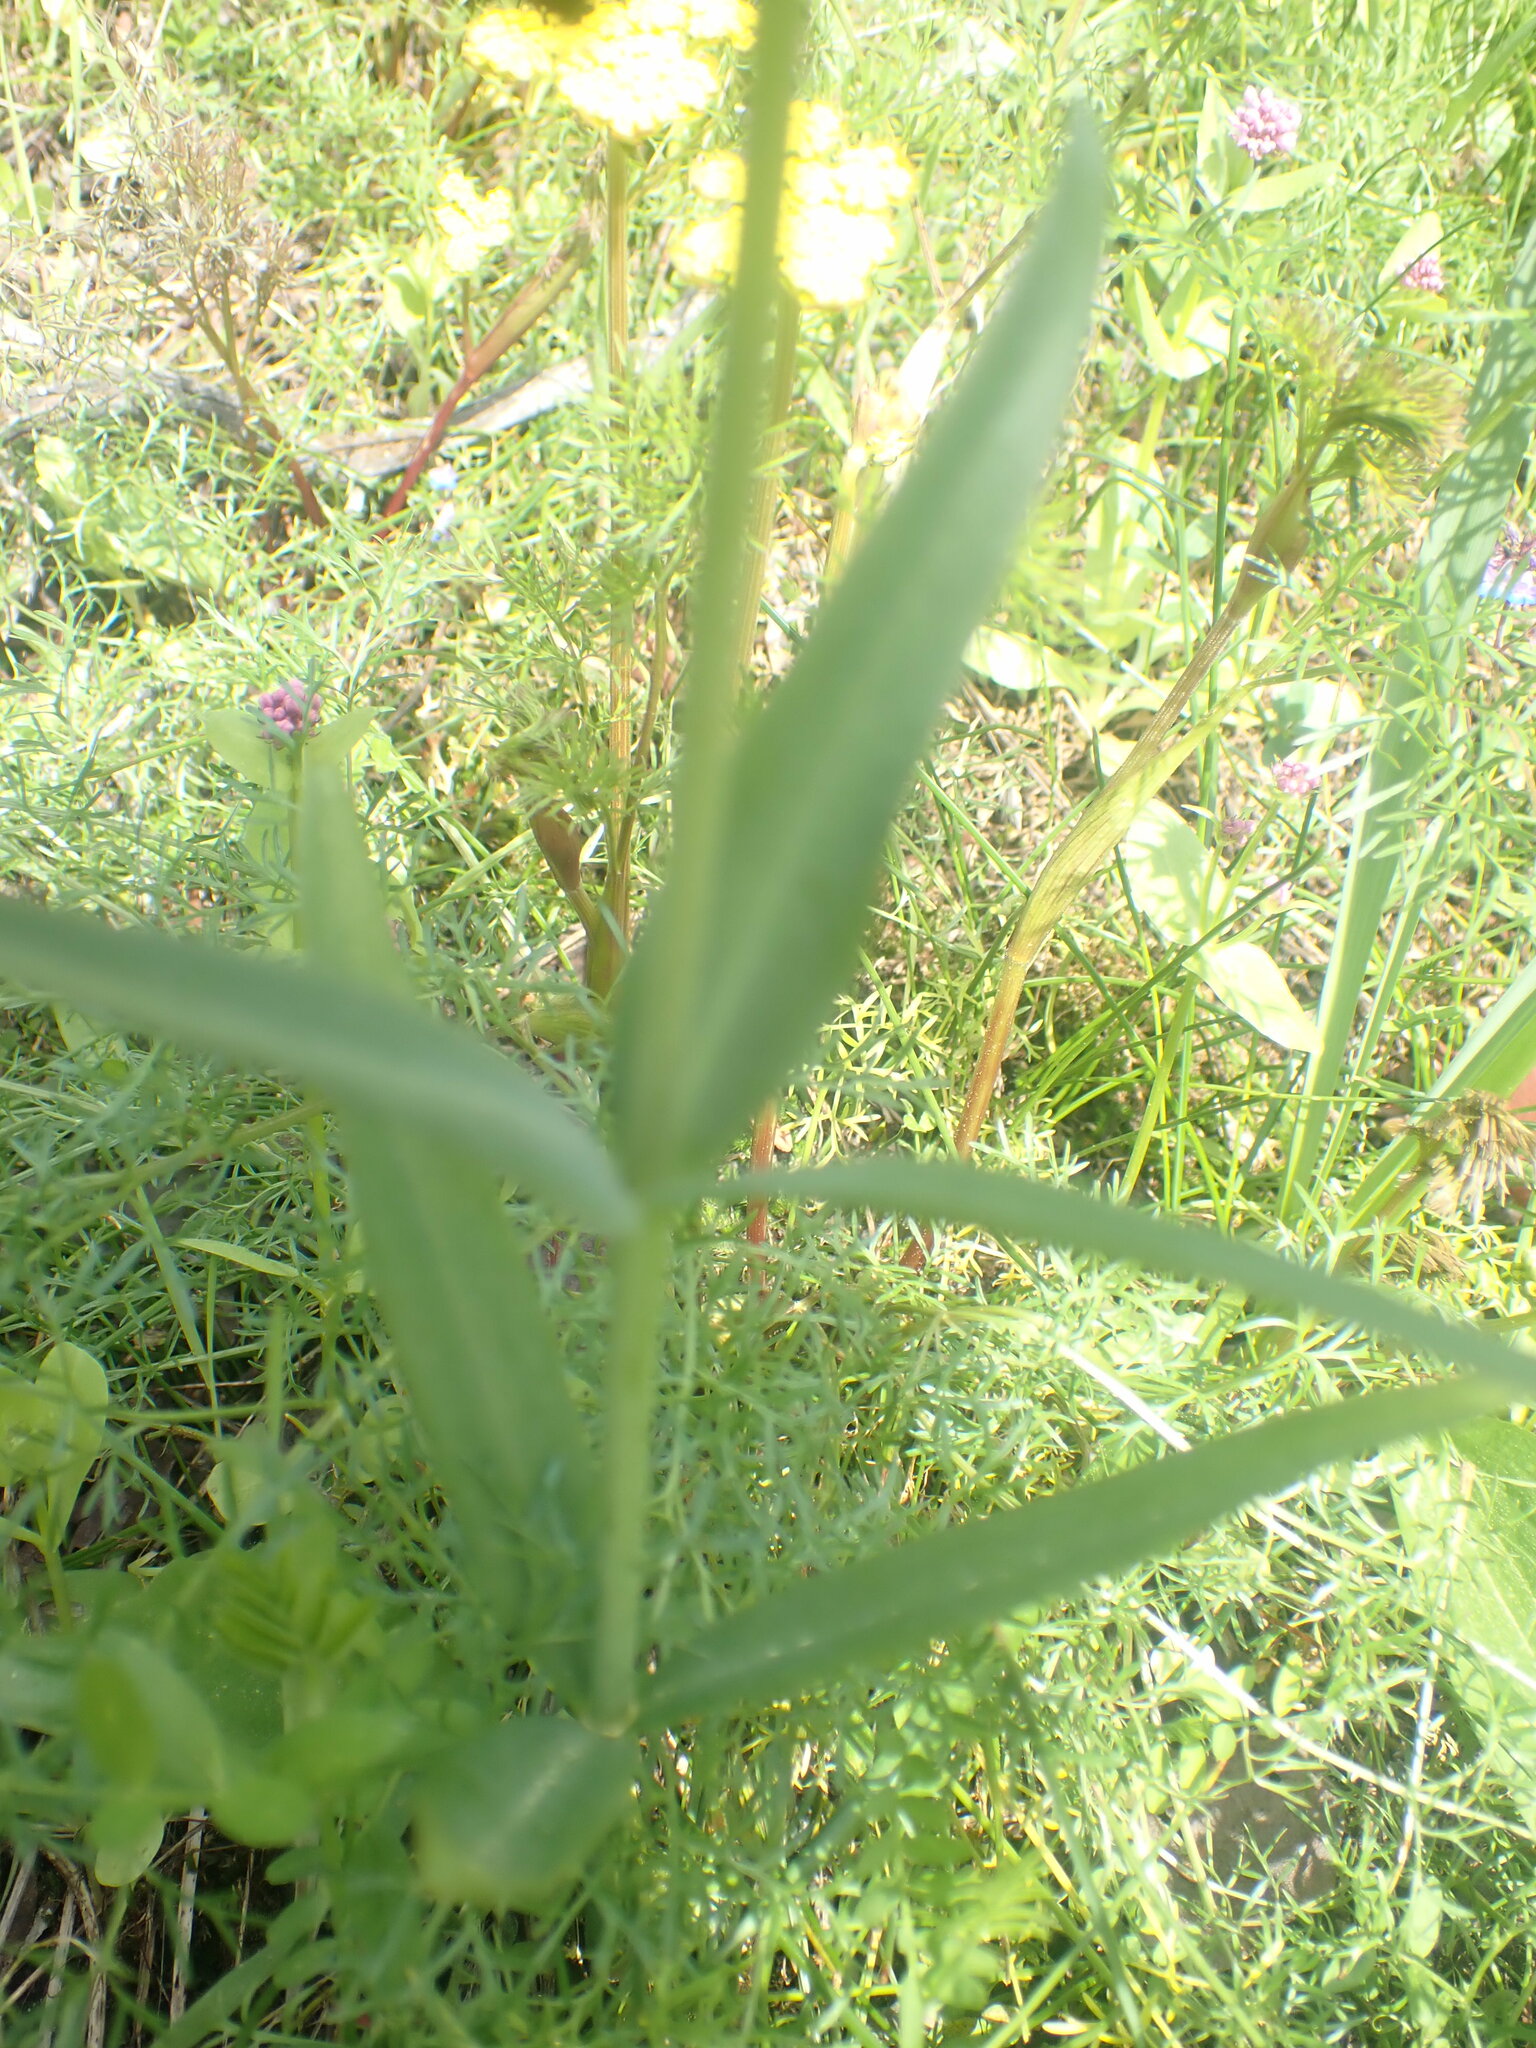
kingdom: Plantae
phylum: Tracheophyta
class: Liliopsida
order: Liliales
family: Liliaceae
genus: Fritillaria
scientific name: Fritillaria affinis
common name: Ojai fritillary
